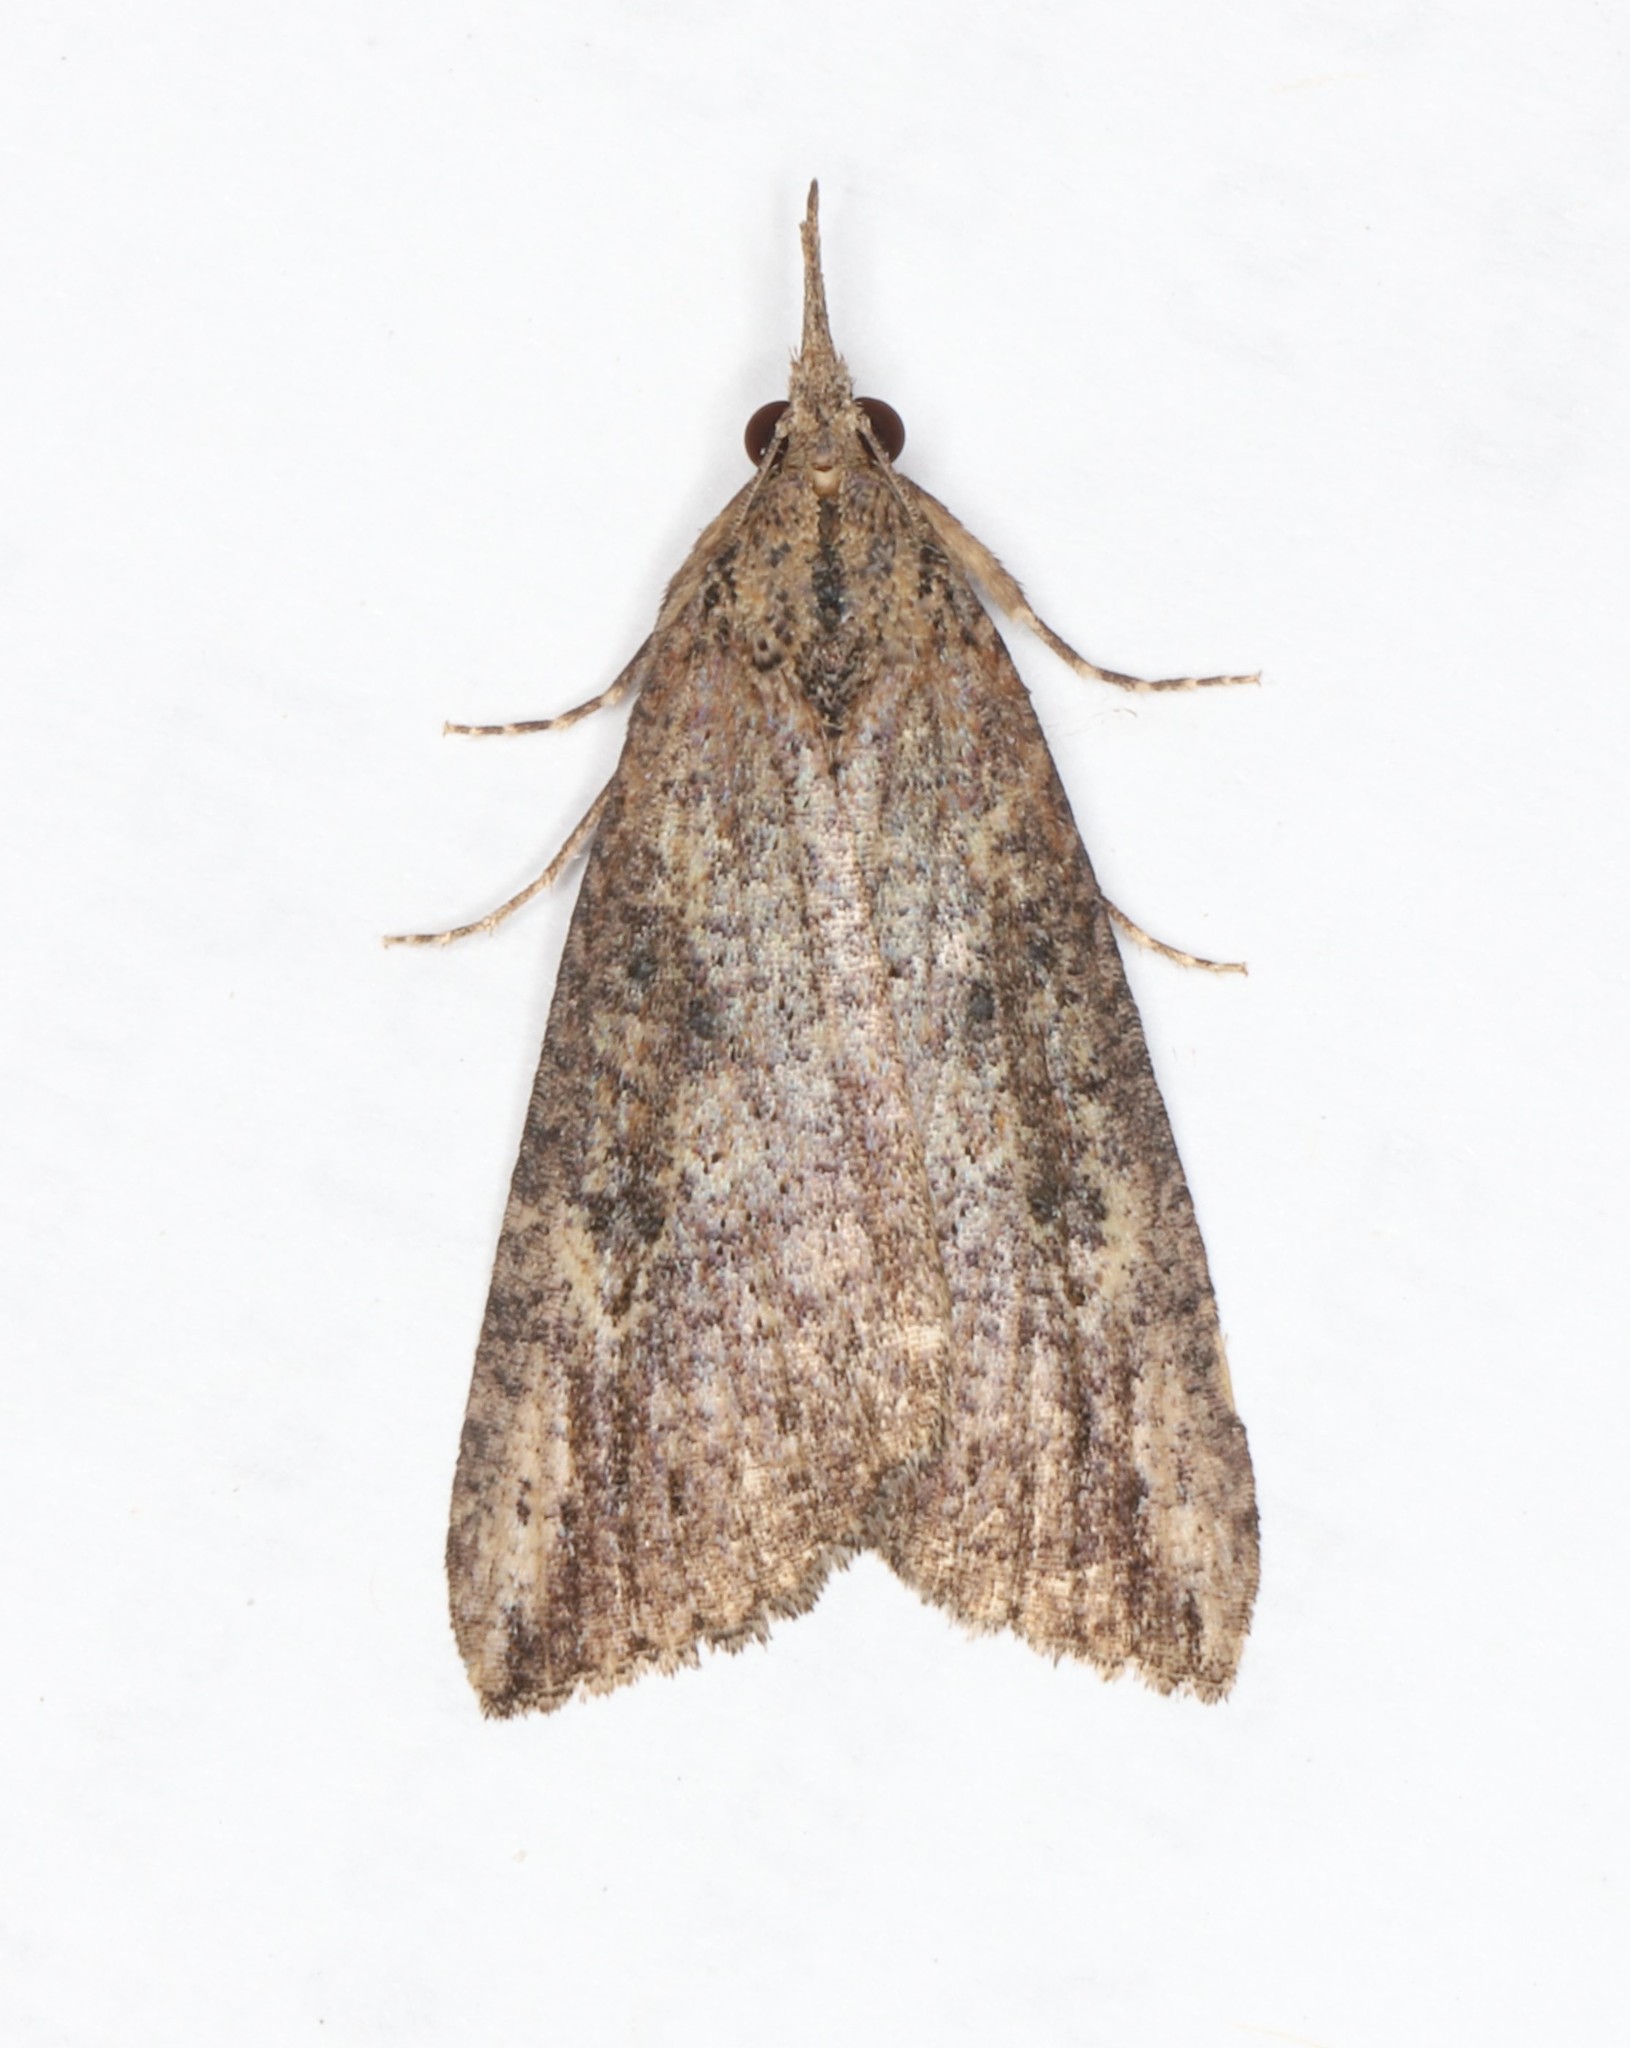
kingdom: Animalia
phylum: Arthropoda
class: Insecta
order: Lepidoptera
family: Erebidae
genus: Hypena
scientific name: Hypena humuli
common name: Hop vine snout
